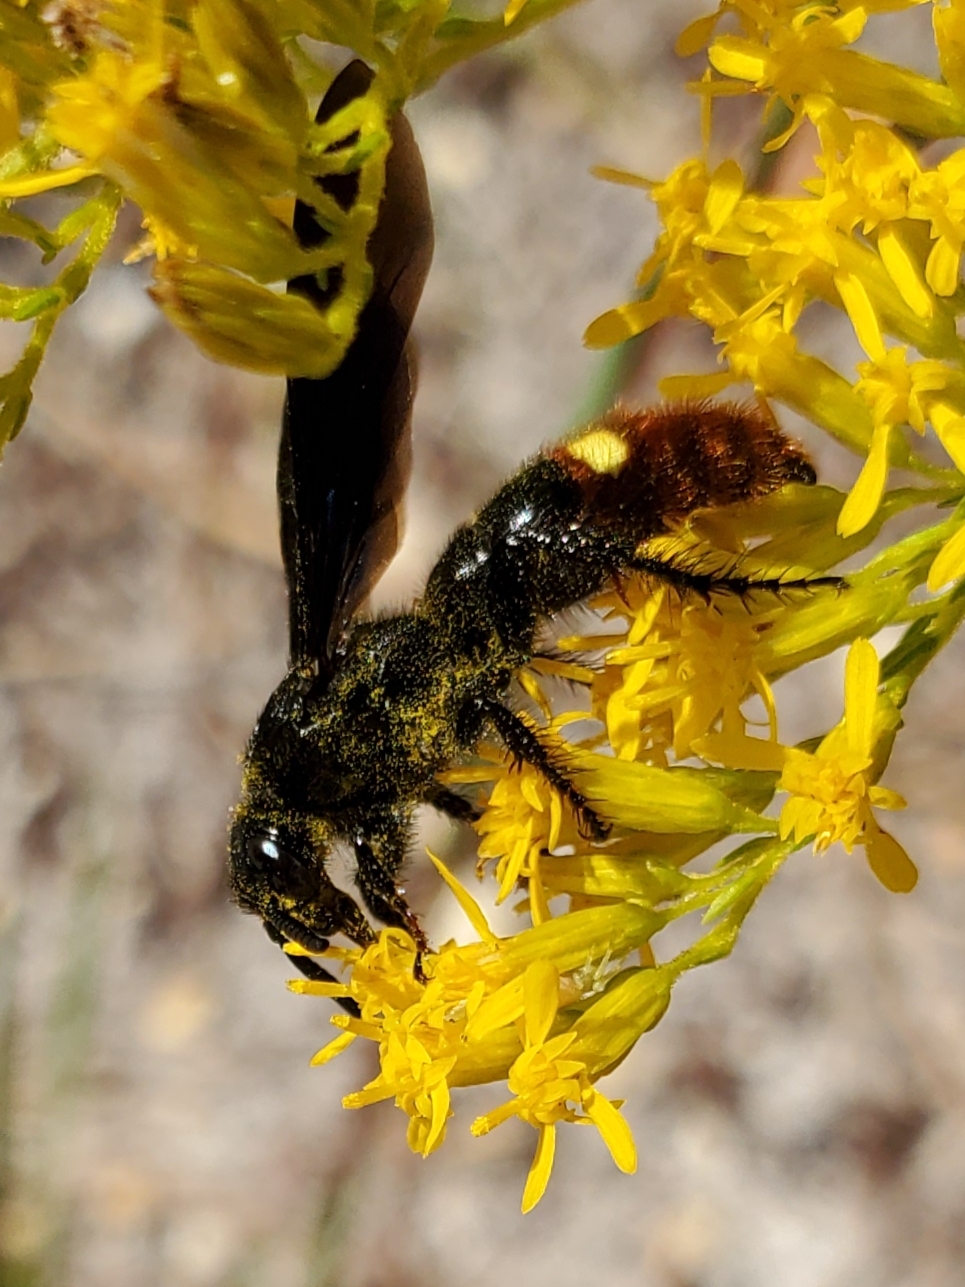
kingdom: Animalia
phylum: Arthropoda
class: Insecta
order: Hymenoptera
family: Scoliidae
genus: Scolia
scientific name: Scolia dubia
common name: Blue-winged scoliid wasp
